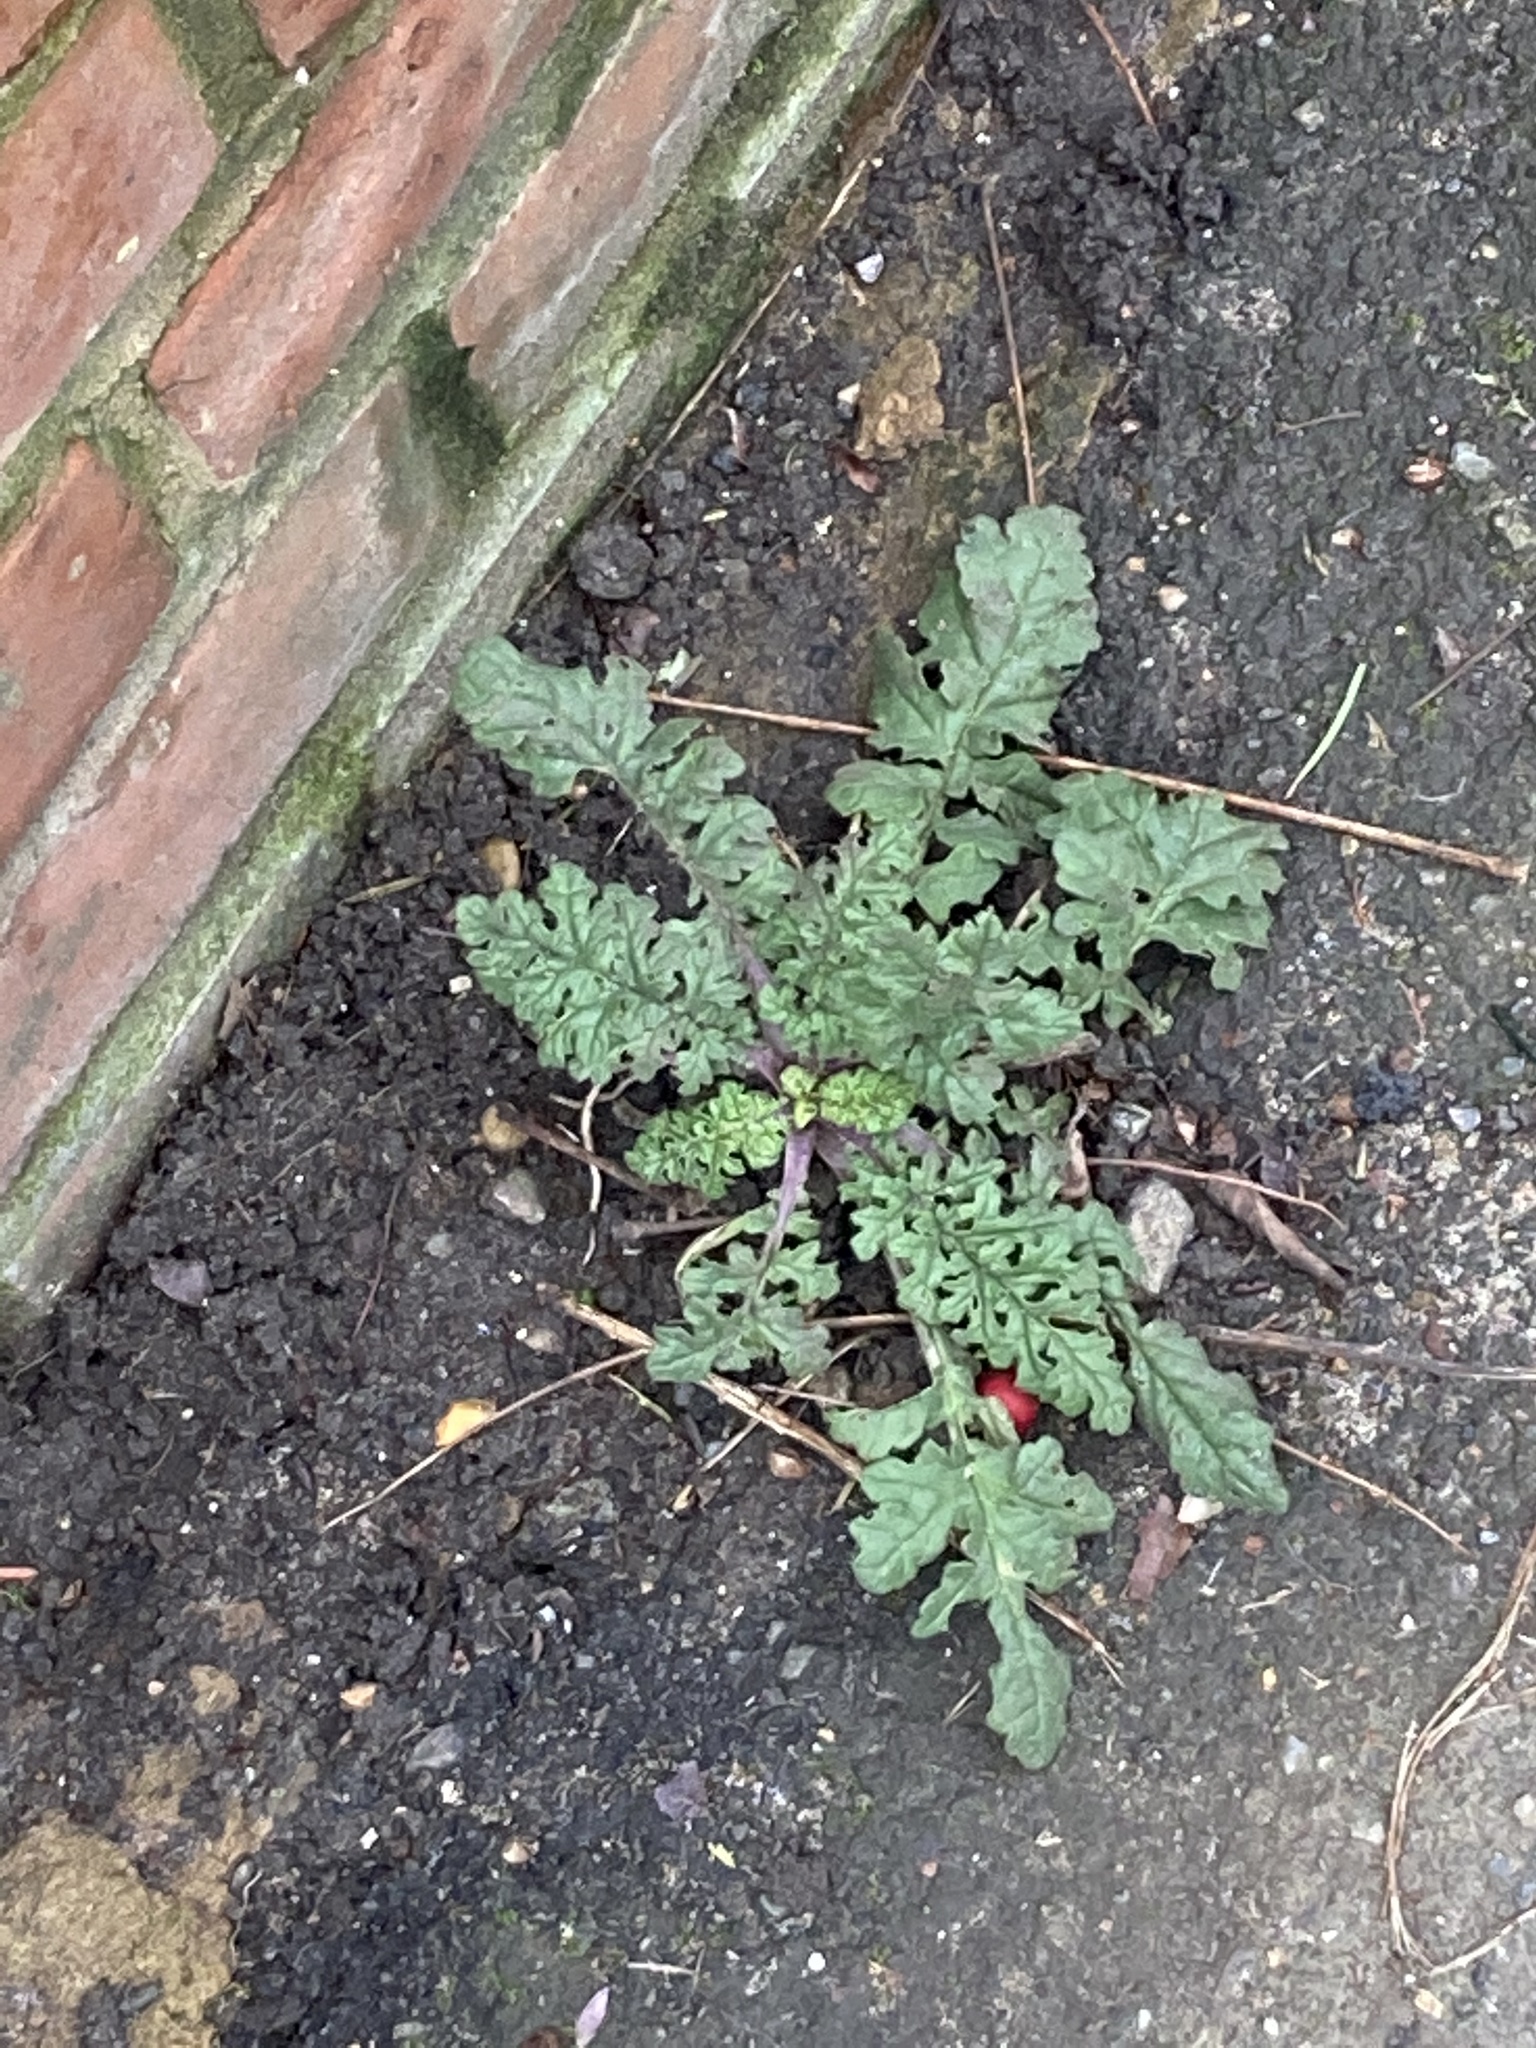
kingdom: Plantae
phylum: Tracheophyta
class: Magnoliopsida
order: Asterales
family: Asteraceae
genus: Jacobaea
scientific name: Jacobaea vulgaris
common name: Stinking willie
